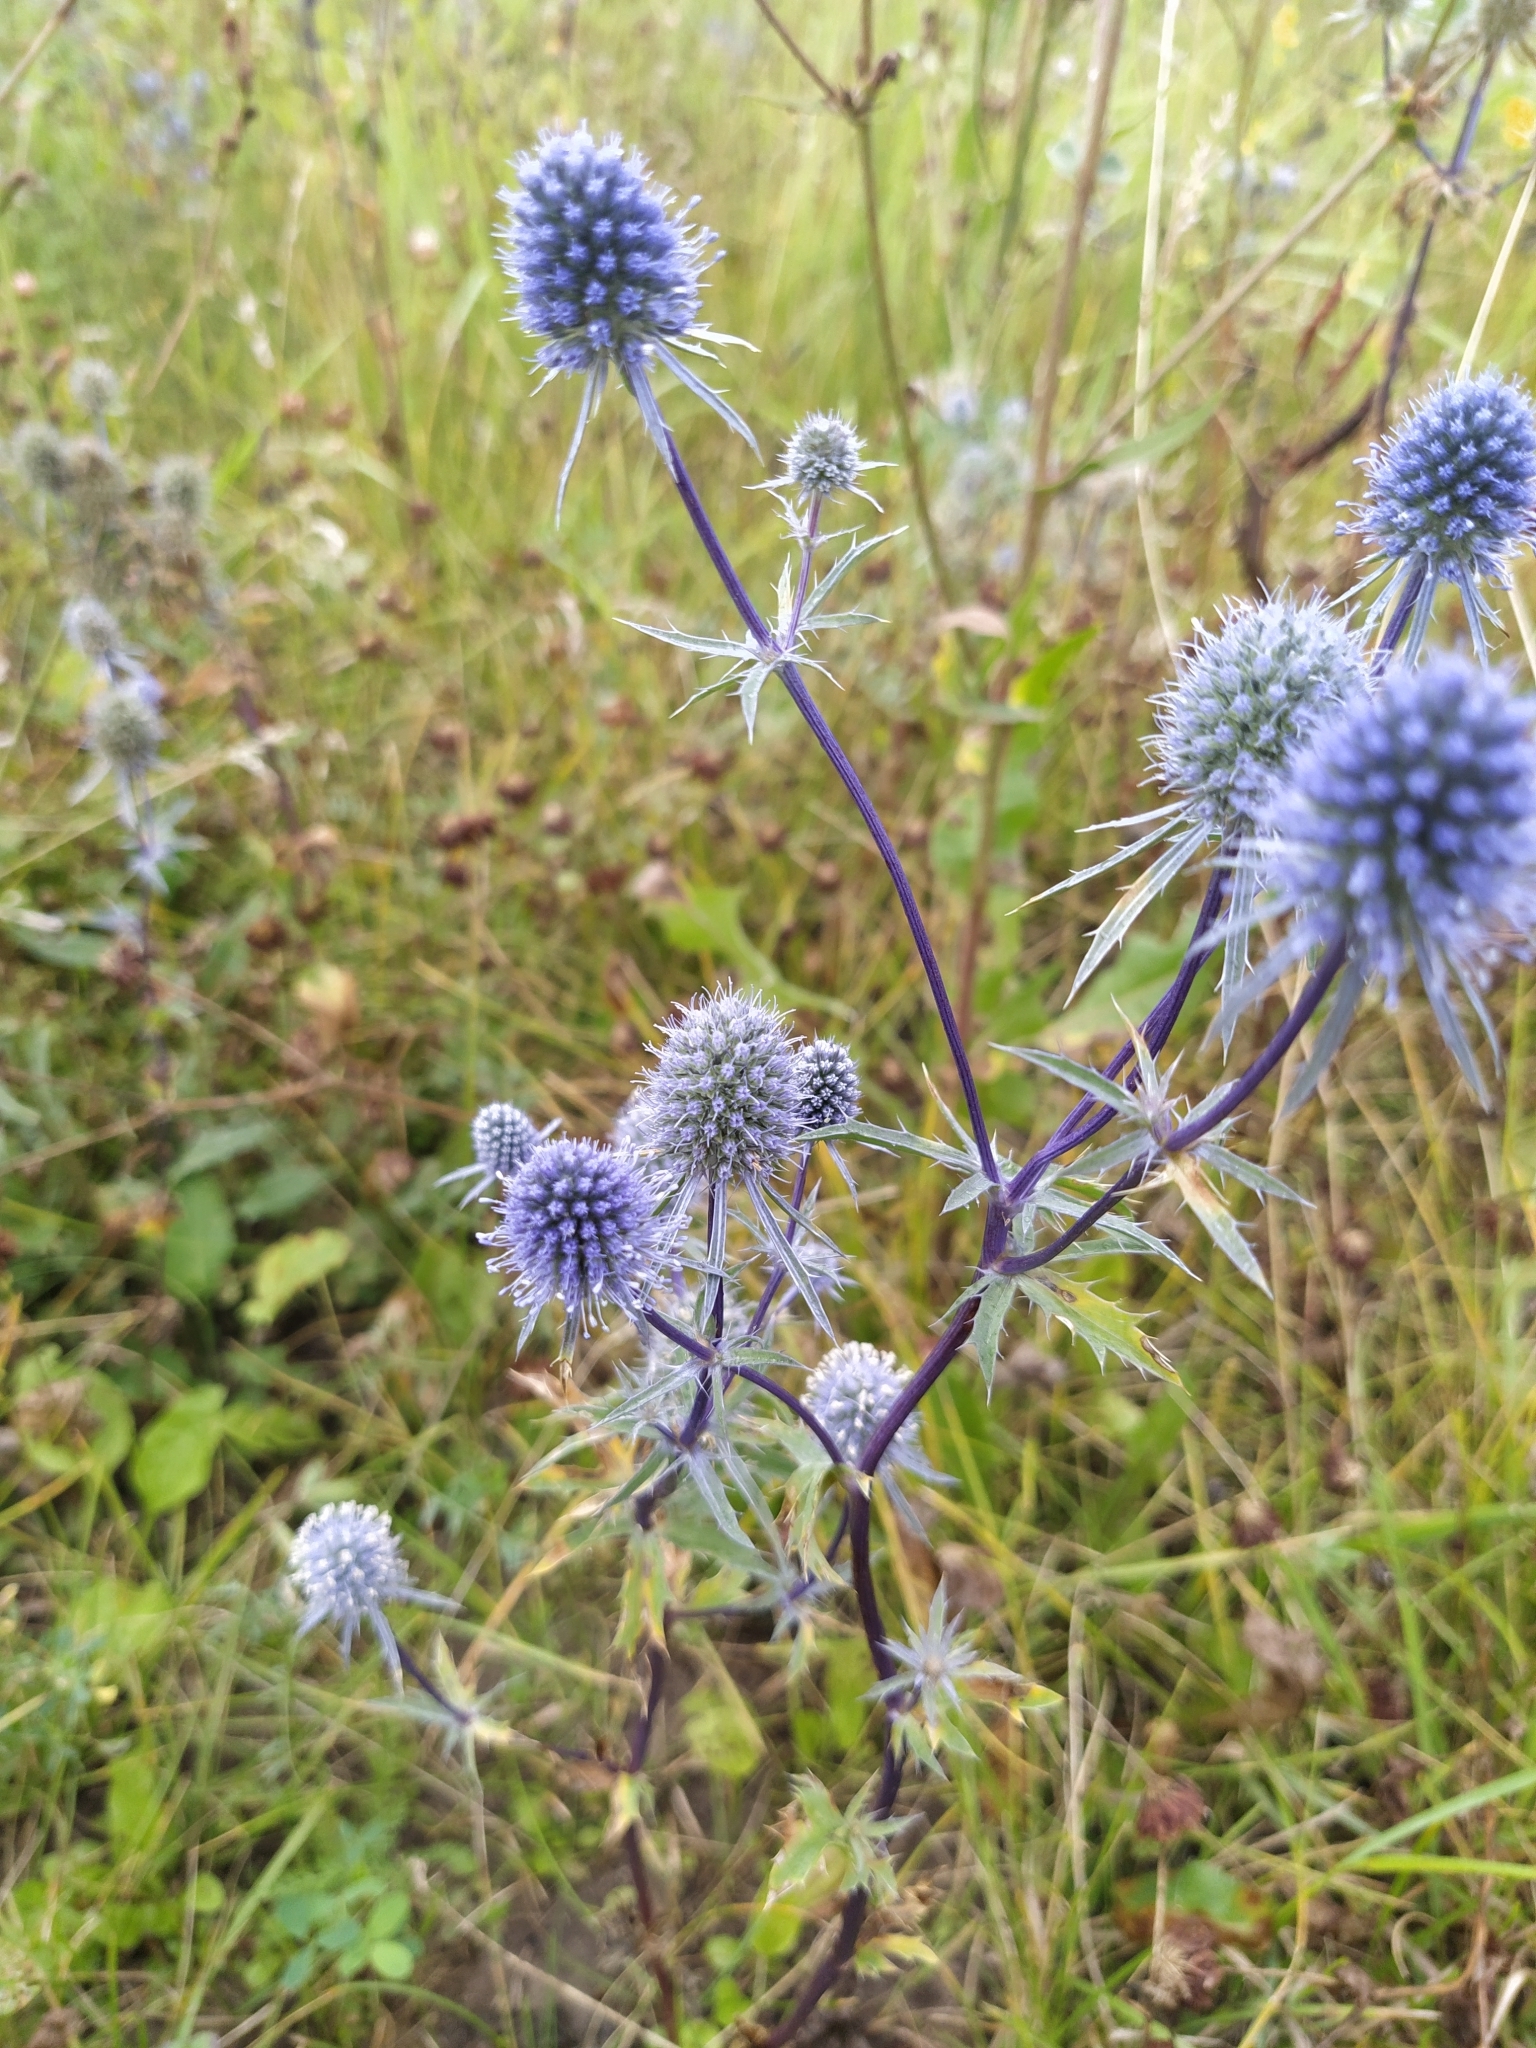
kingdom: Plantae
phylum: Tracheophyta
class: Magnoliopsida
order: Apiales
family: Apiaceae
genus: Eryngium
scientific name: Eryngium planum
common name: Blue eryngo
